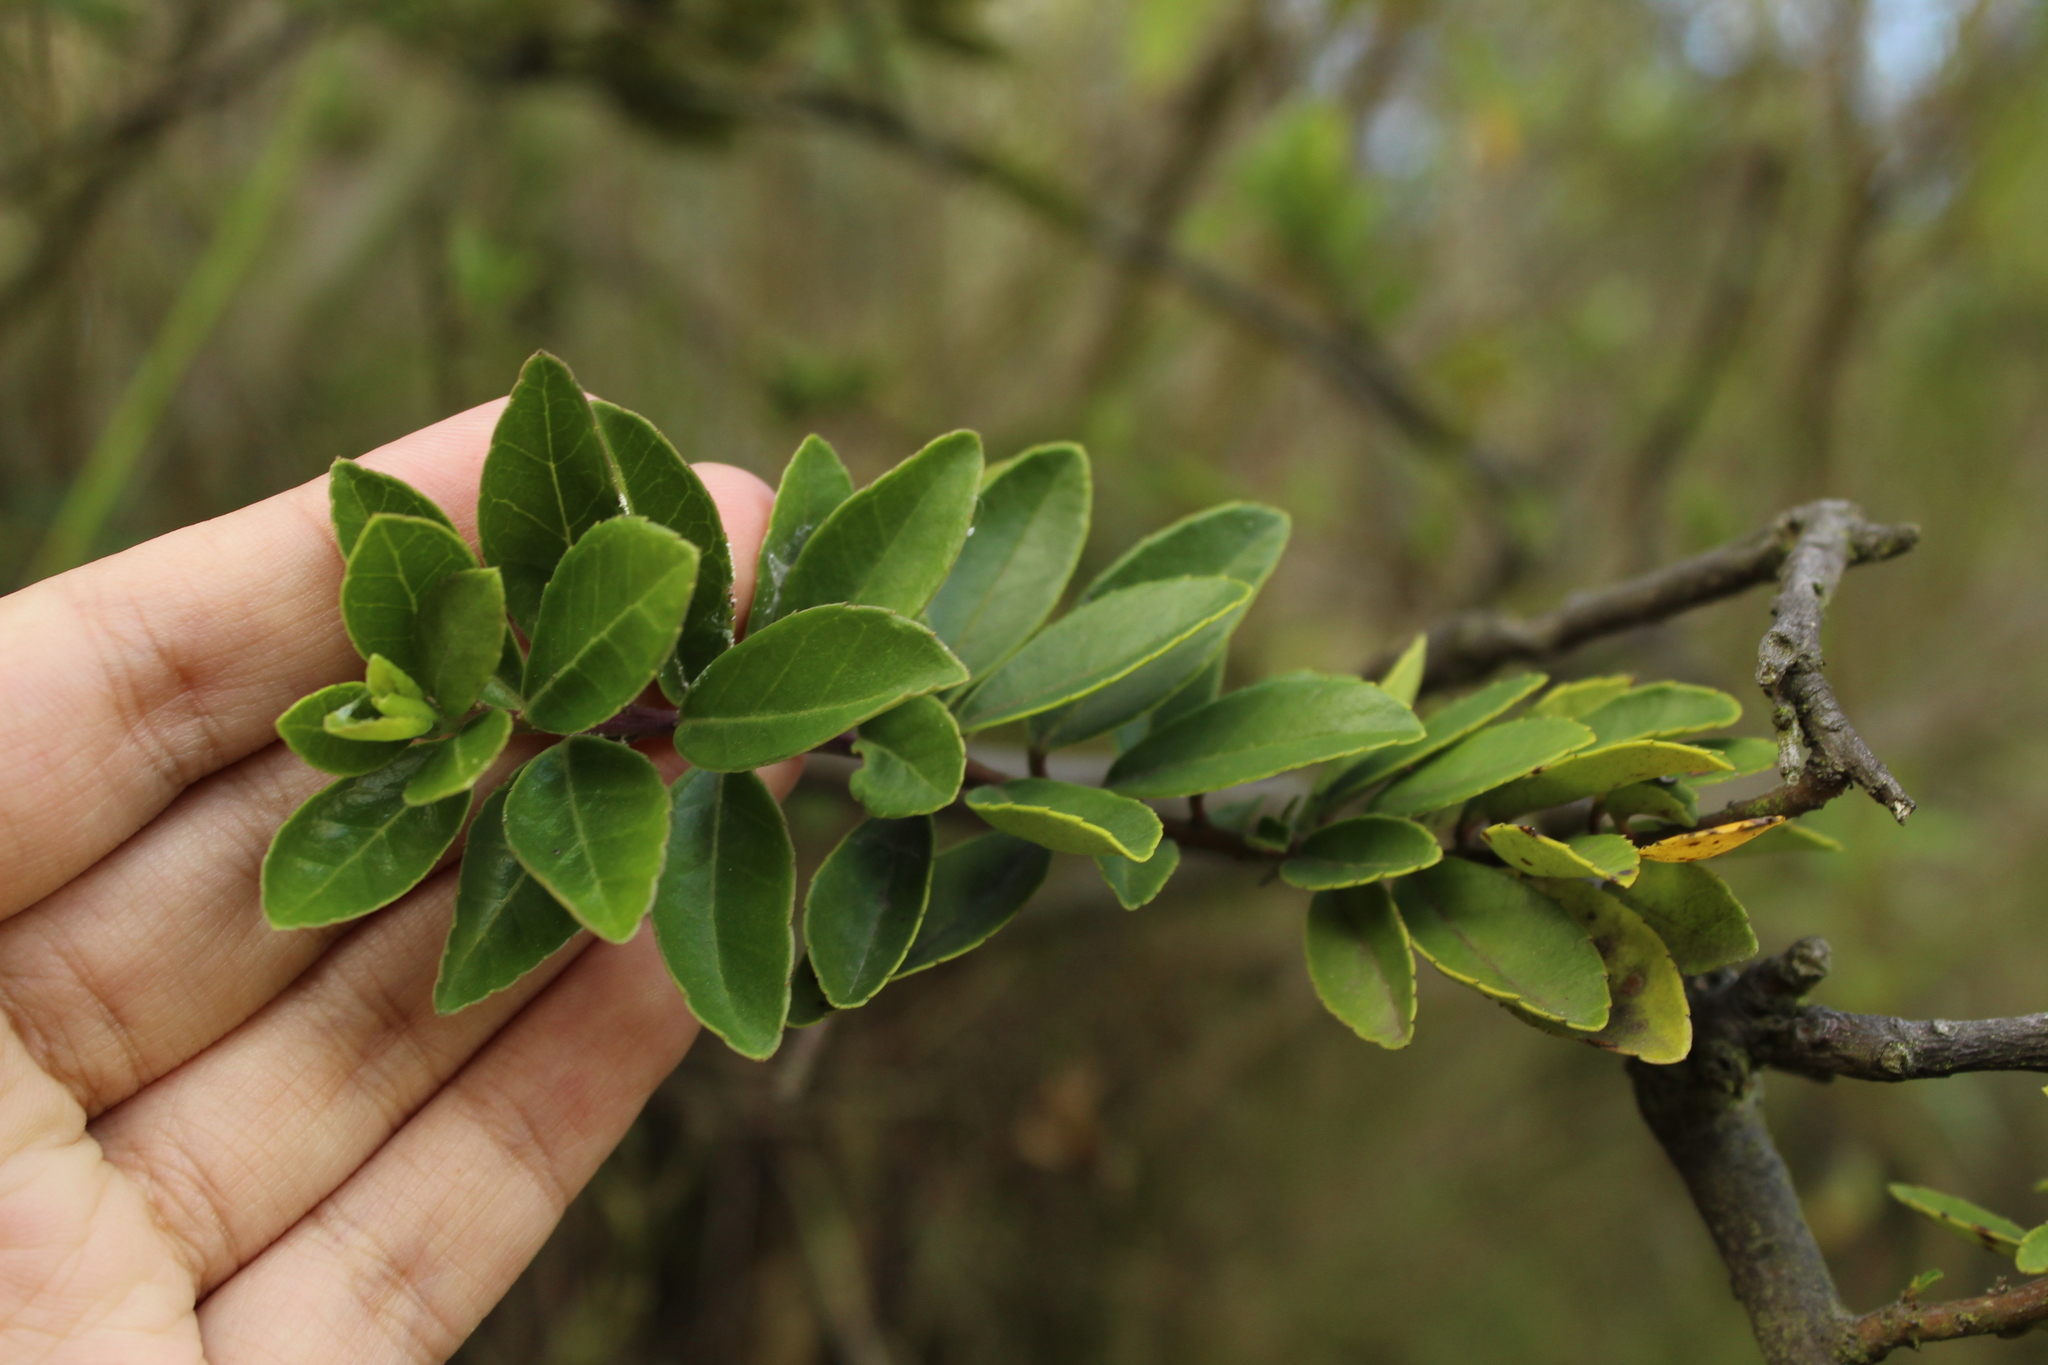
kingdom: Plantae
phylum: Tracheophyta
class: Magnoliopsida
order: Aquifoliales
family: Aquifoliaceae
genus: Ilex
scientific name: Ilex microphylla
